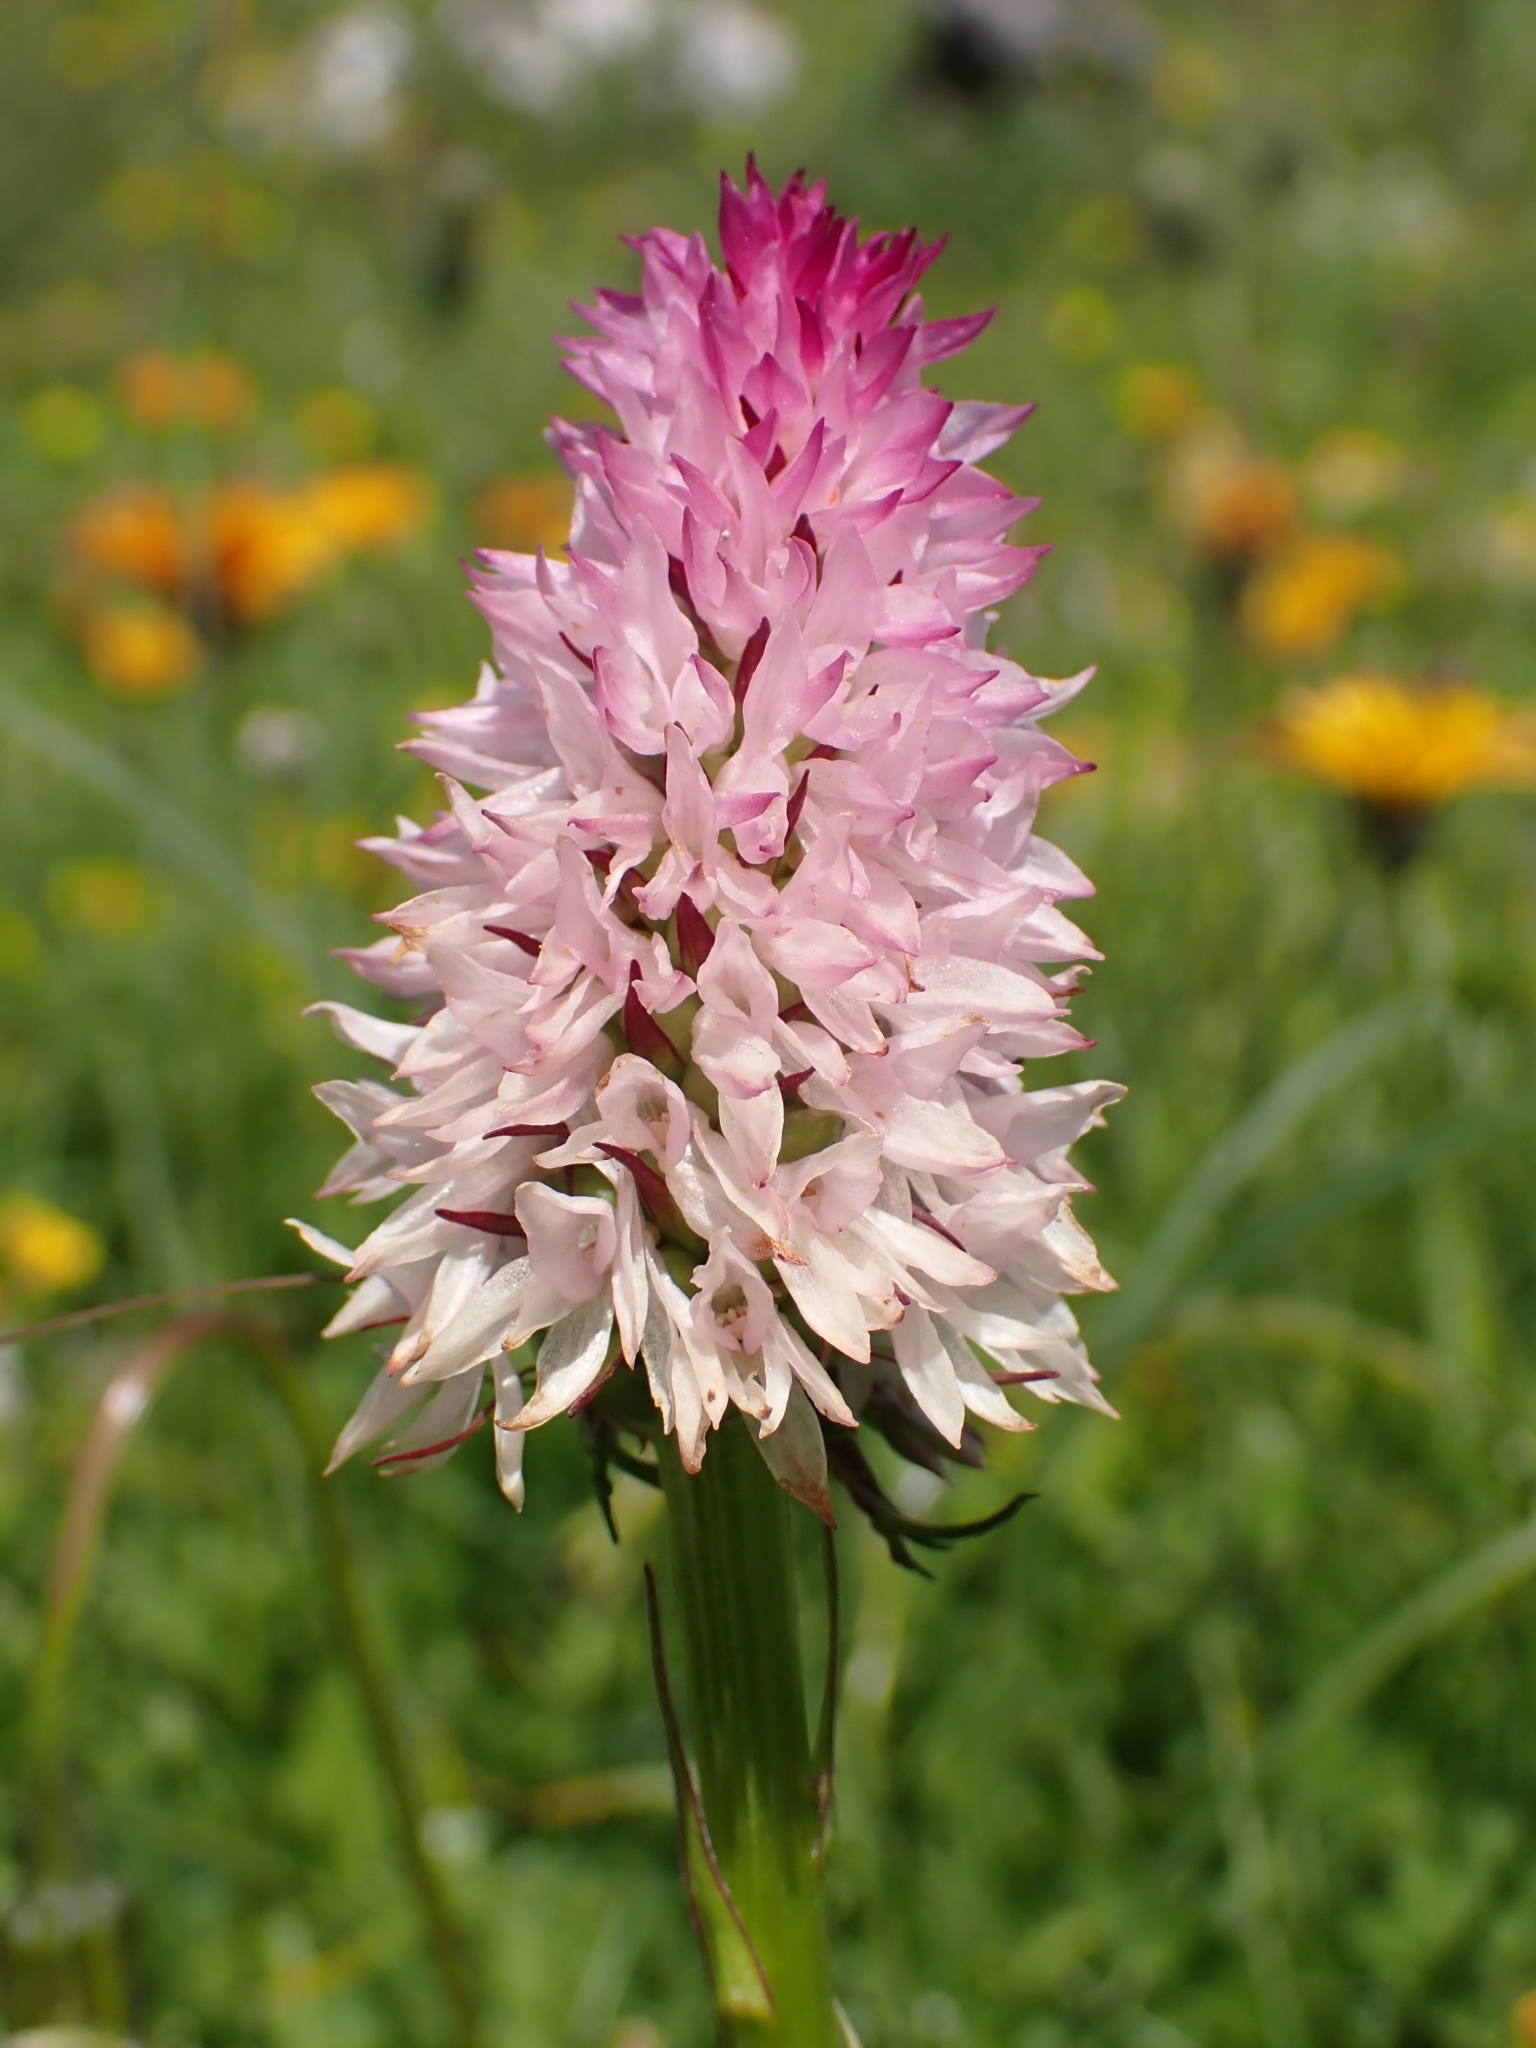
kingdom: Plantae
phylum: Tracheophyta
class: Liliopsida
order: Asparagales
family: Orchidaceae
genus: Gymnadenia
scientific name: Gymnadenia lithopolitanica
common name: Austrian gymnadenia
